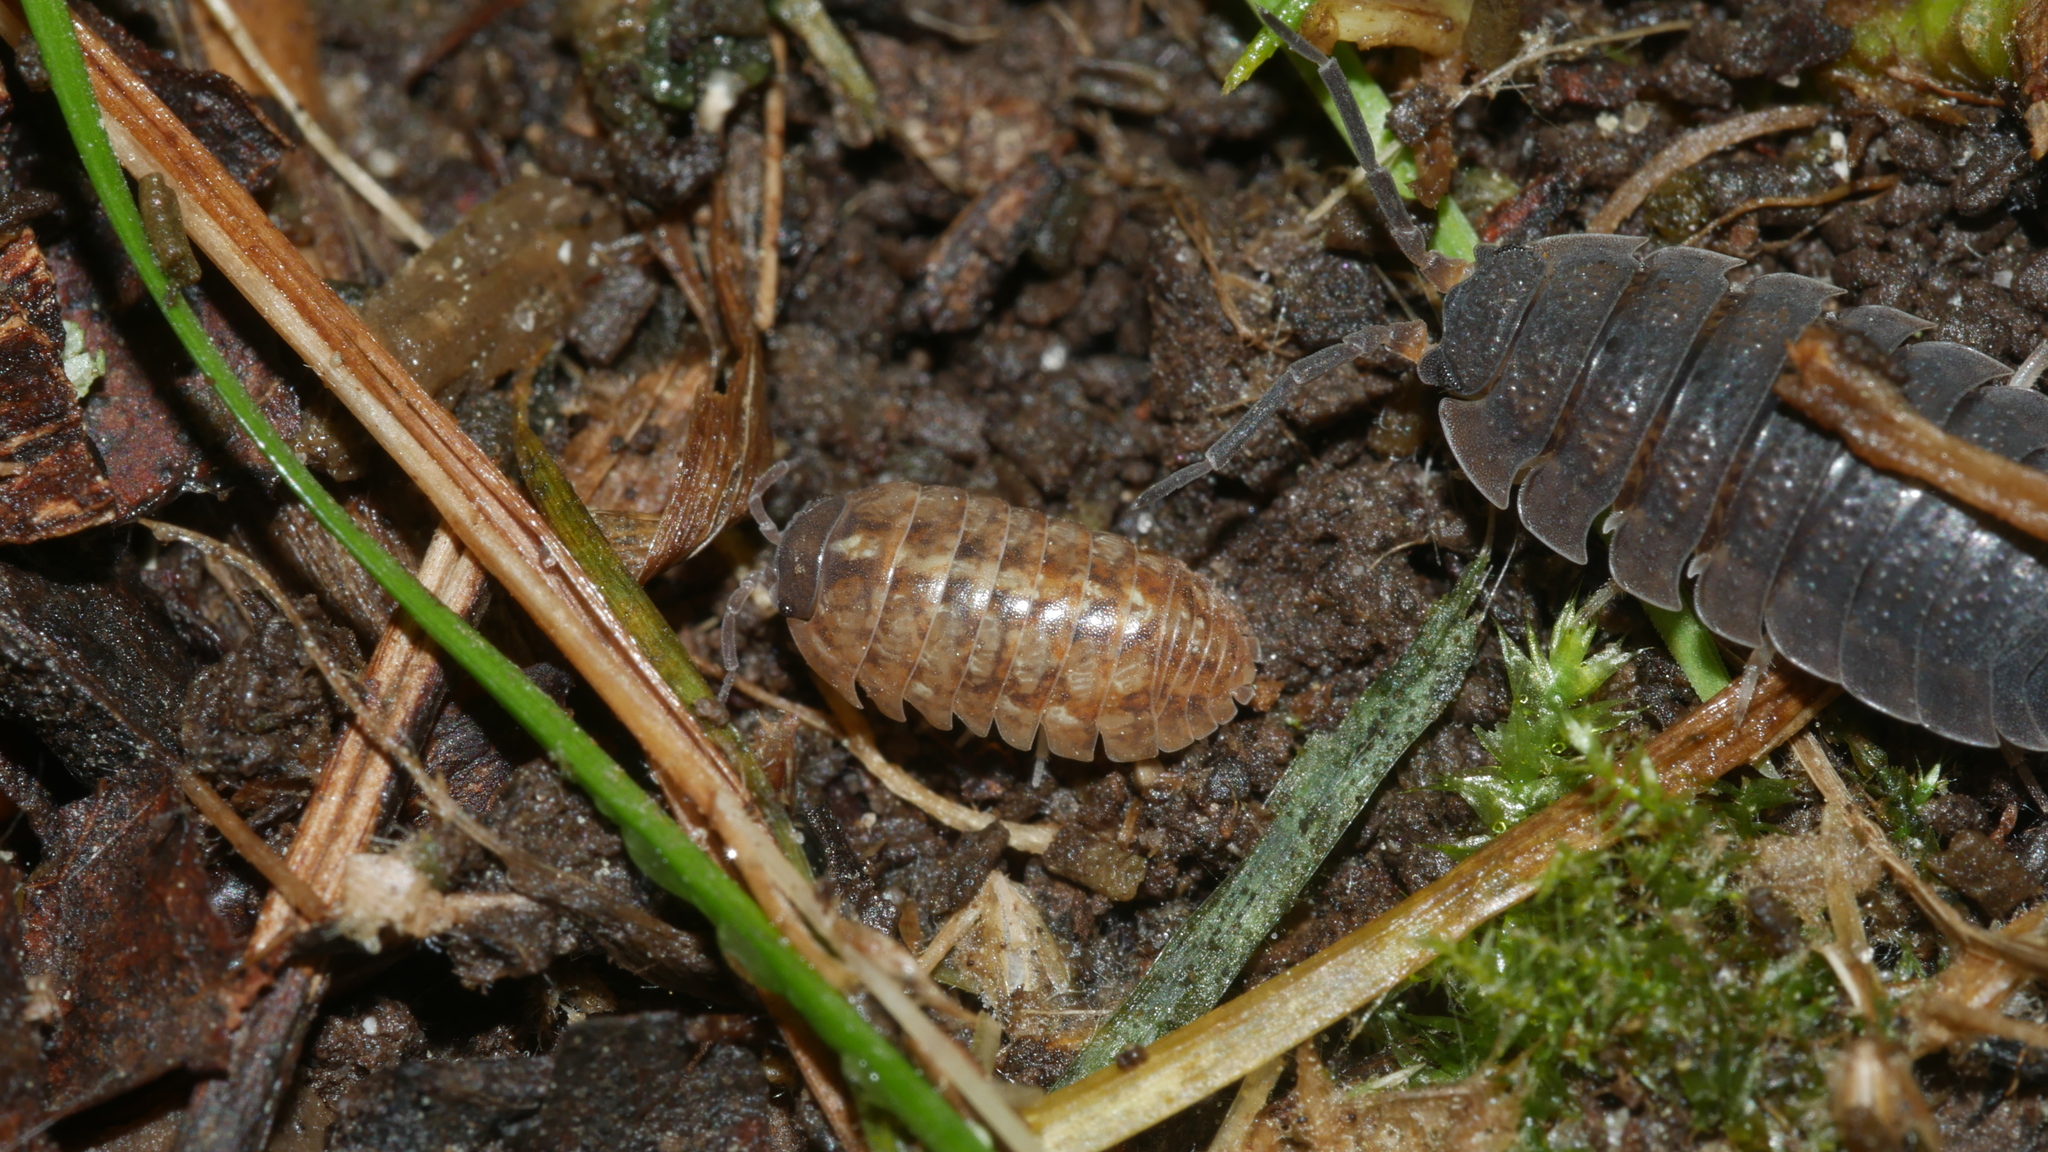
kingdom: Animalia
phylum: Arthropoda
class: Malacostraca
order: Isopoda
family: Armadillidiidae
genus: Armadillidium
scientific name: Armadillidium vulgare
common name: Common pill woodlouse
